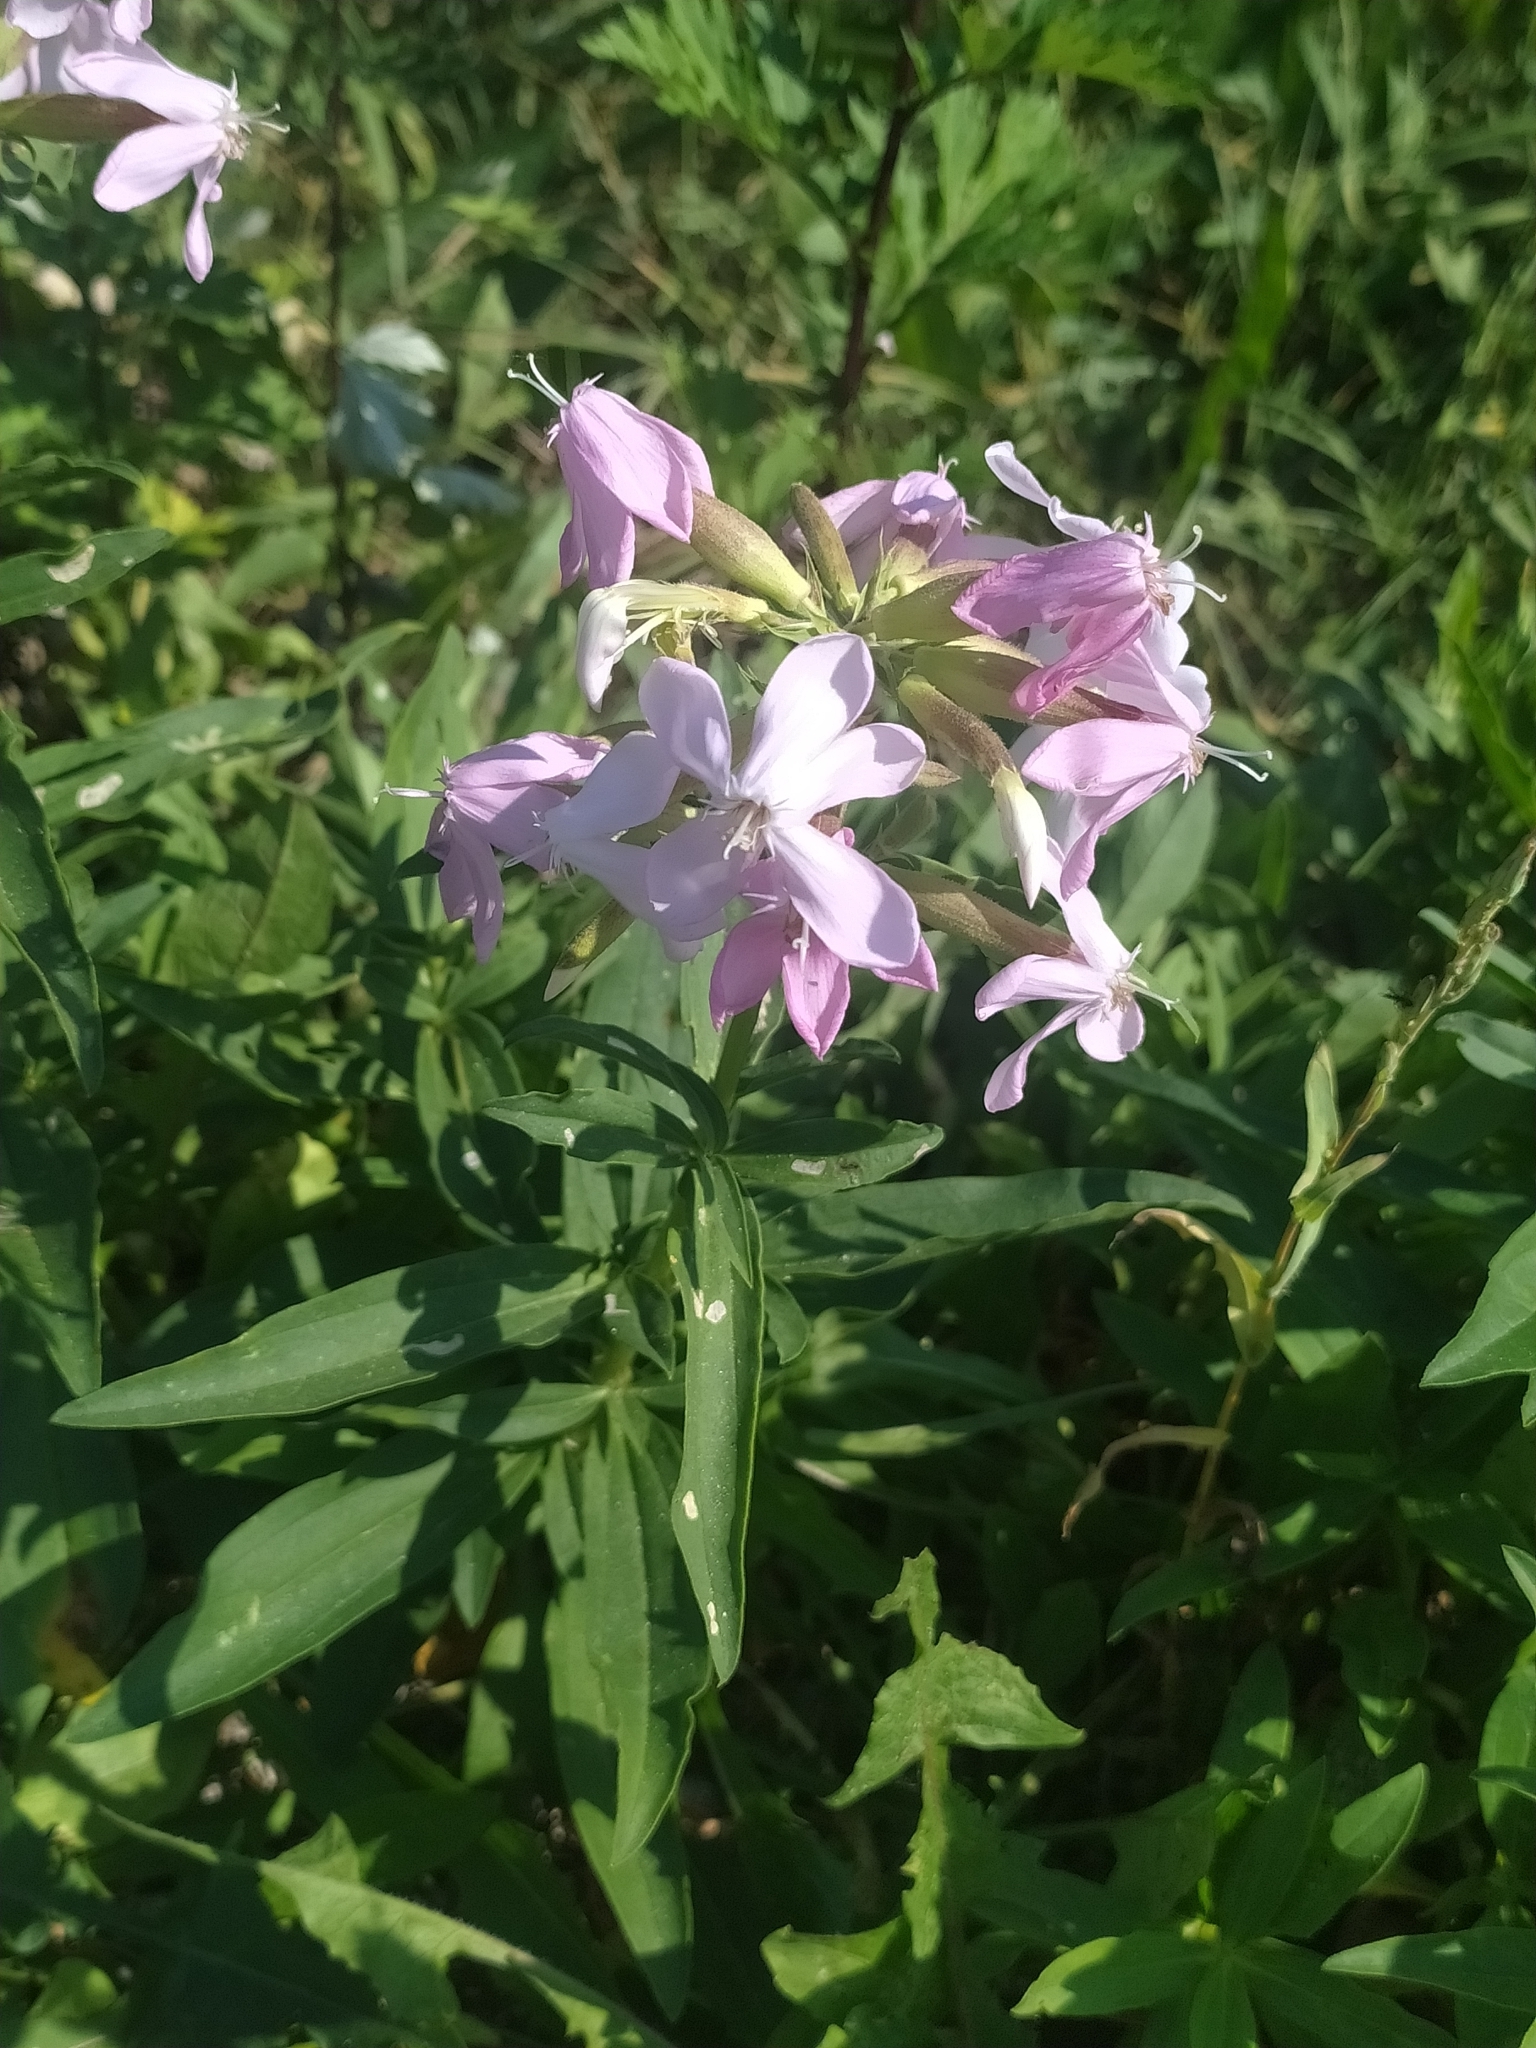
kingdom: Plantae
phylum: Tracheophyta
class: Magnoliopsida
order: Caryophyllales
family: Caryophyllaceae
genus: Saponaria
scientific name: Saponaria officinalis
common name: Soapwort
